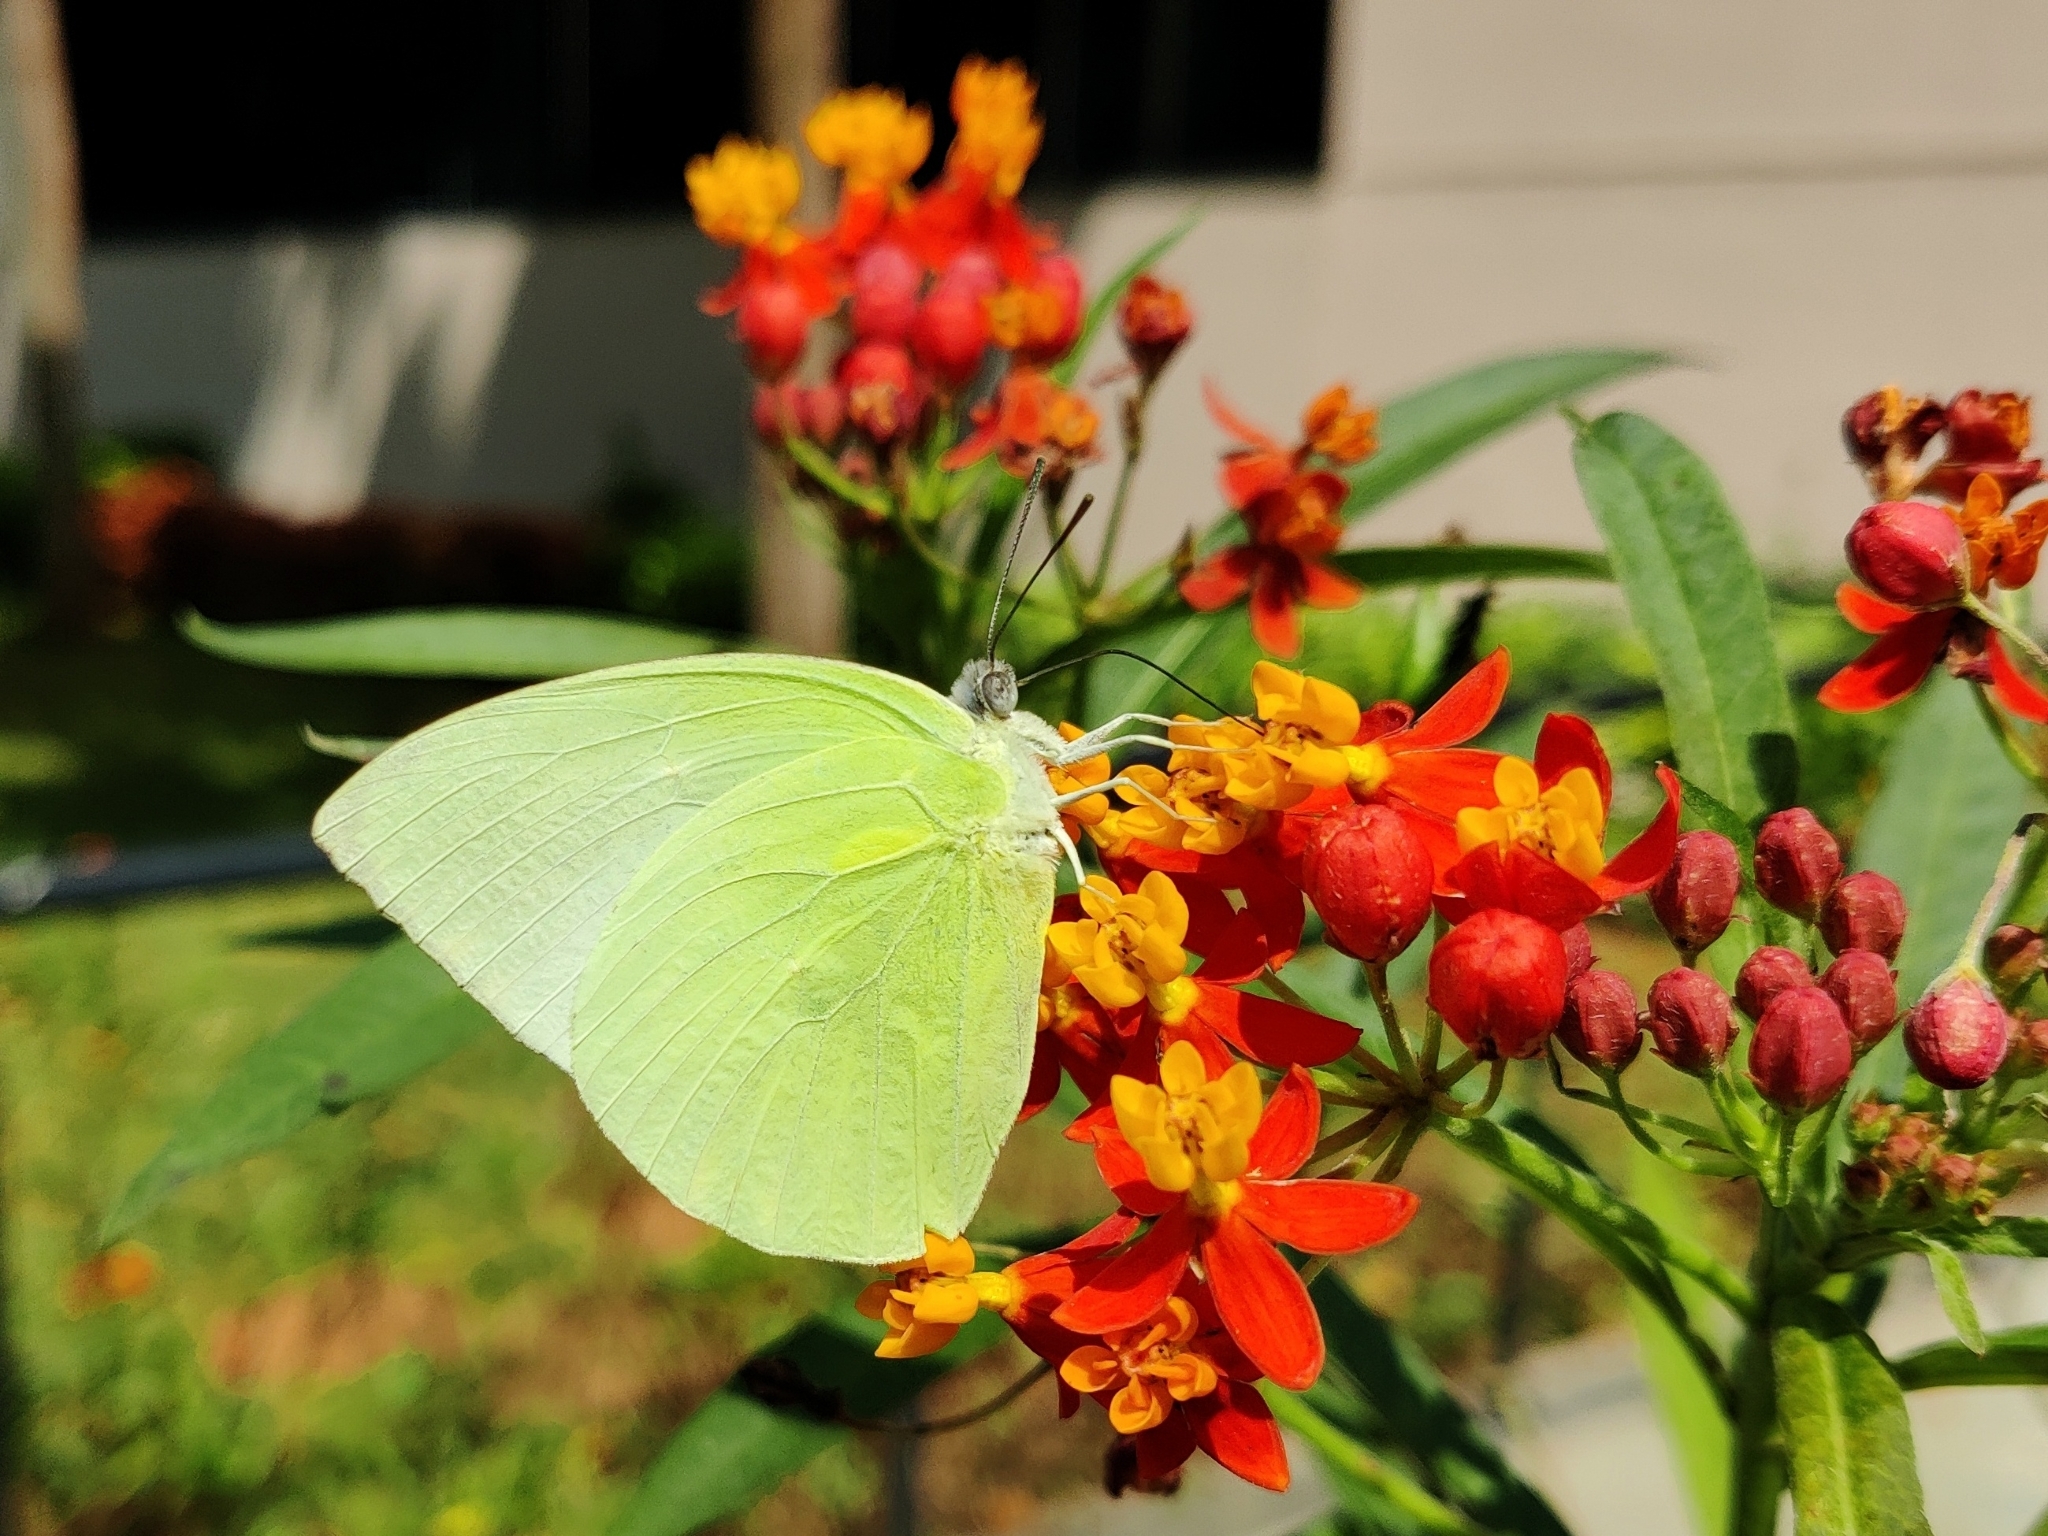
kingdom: Animalia
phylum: Arthropoda
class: Insecta
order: Lepidoptera
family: Pieridae
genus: Catopsilia
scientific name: Catopsilia pomona
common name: Common emigrant
